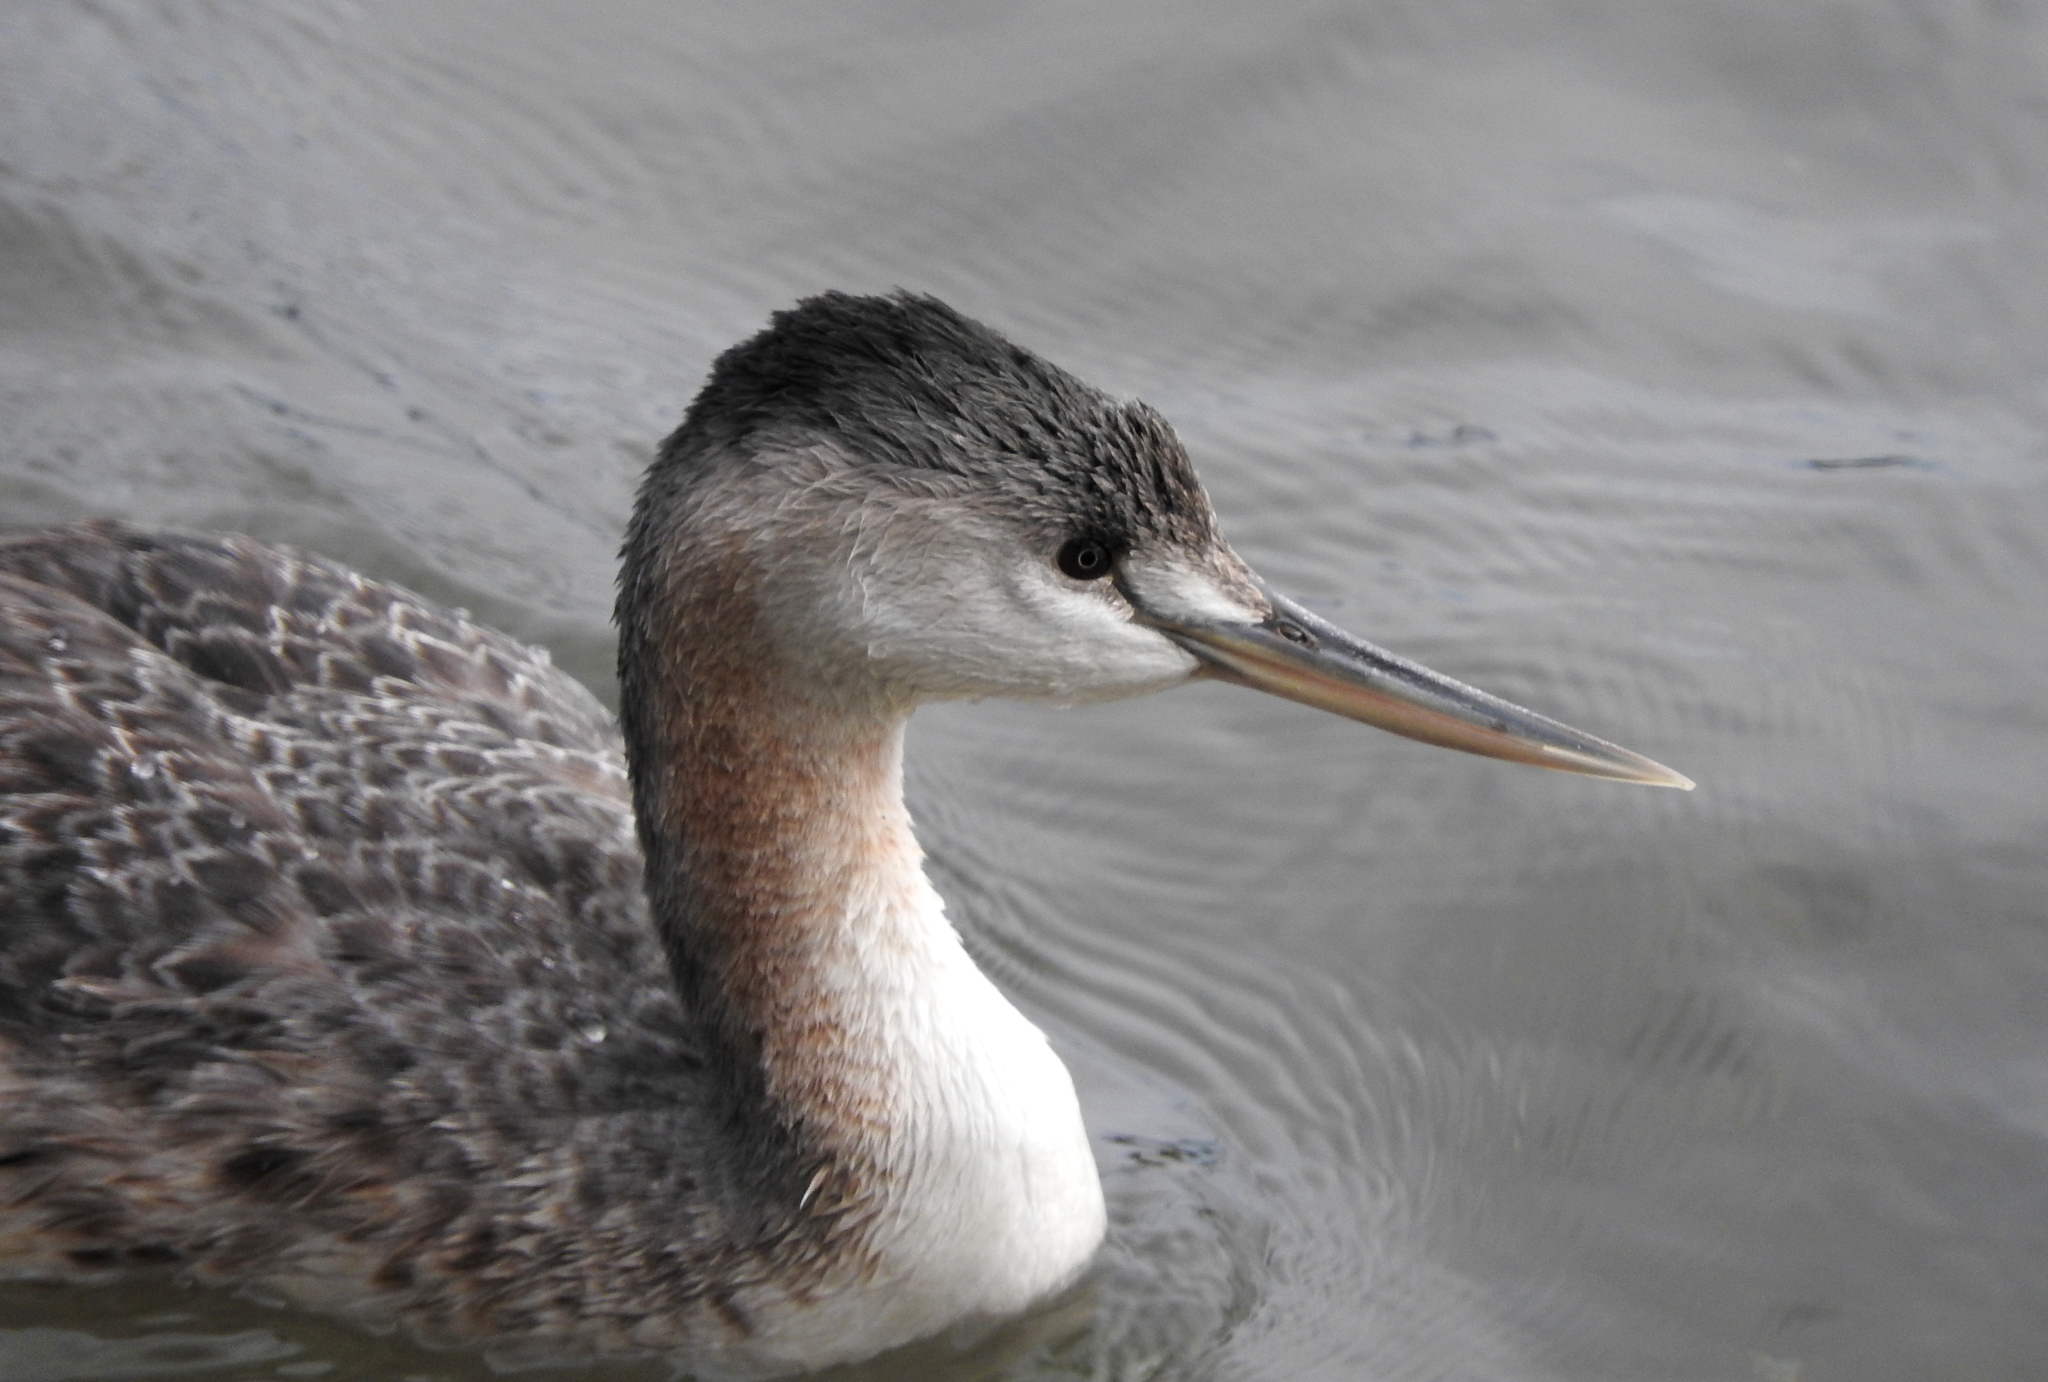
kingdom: Animalia
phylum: Chordata
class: Aves
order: Podicipediformes
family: Podicipedidae
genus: Podiceps
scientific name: Podiceps major
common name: Great grebe
